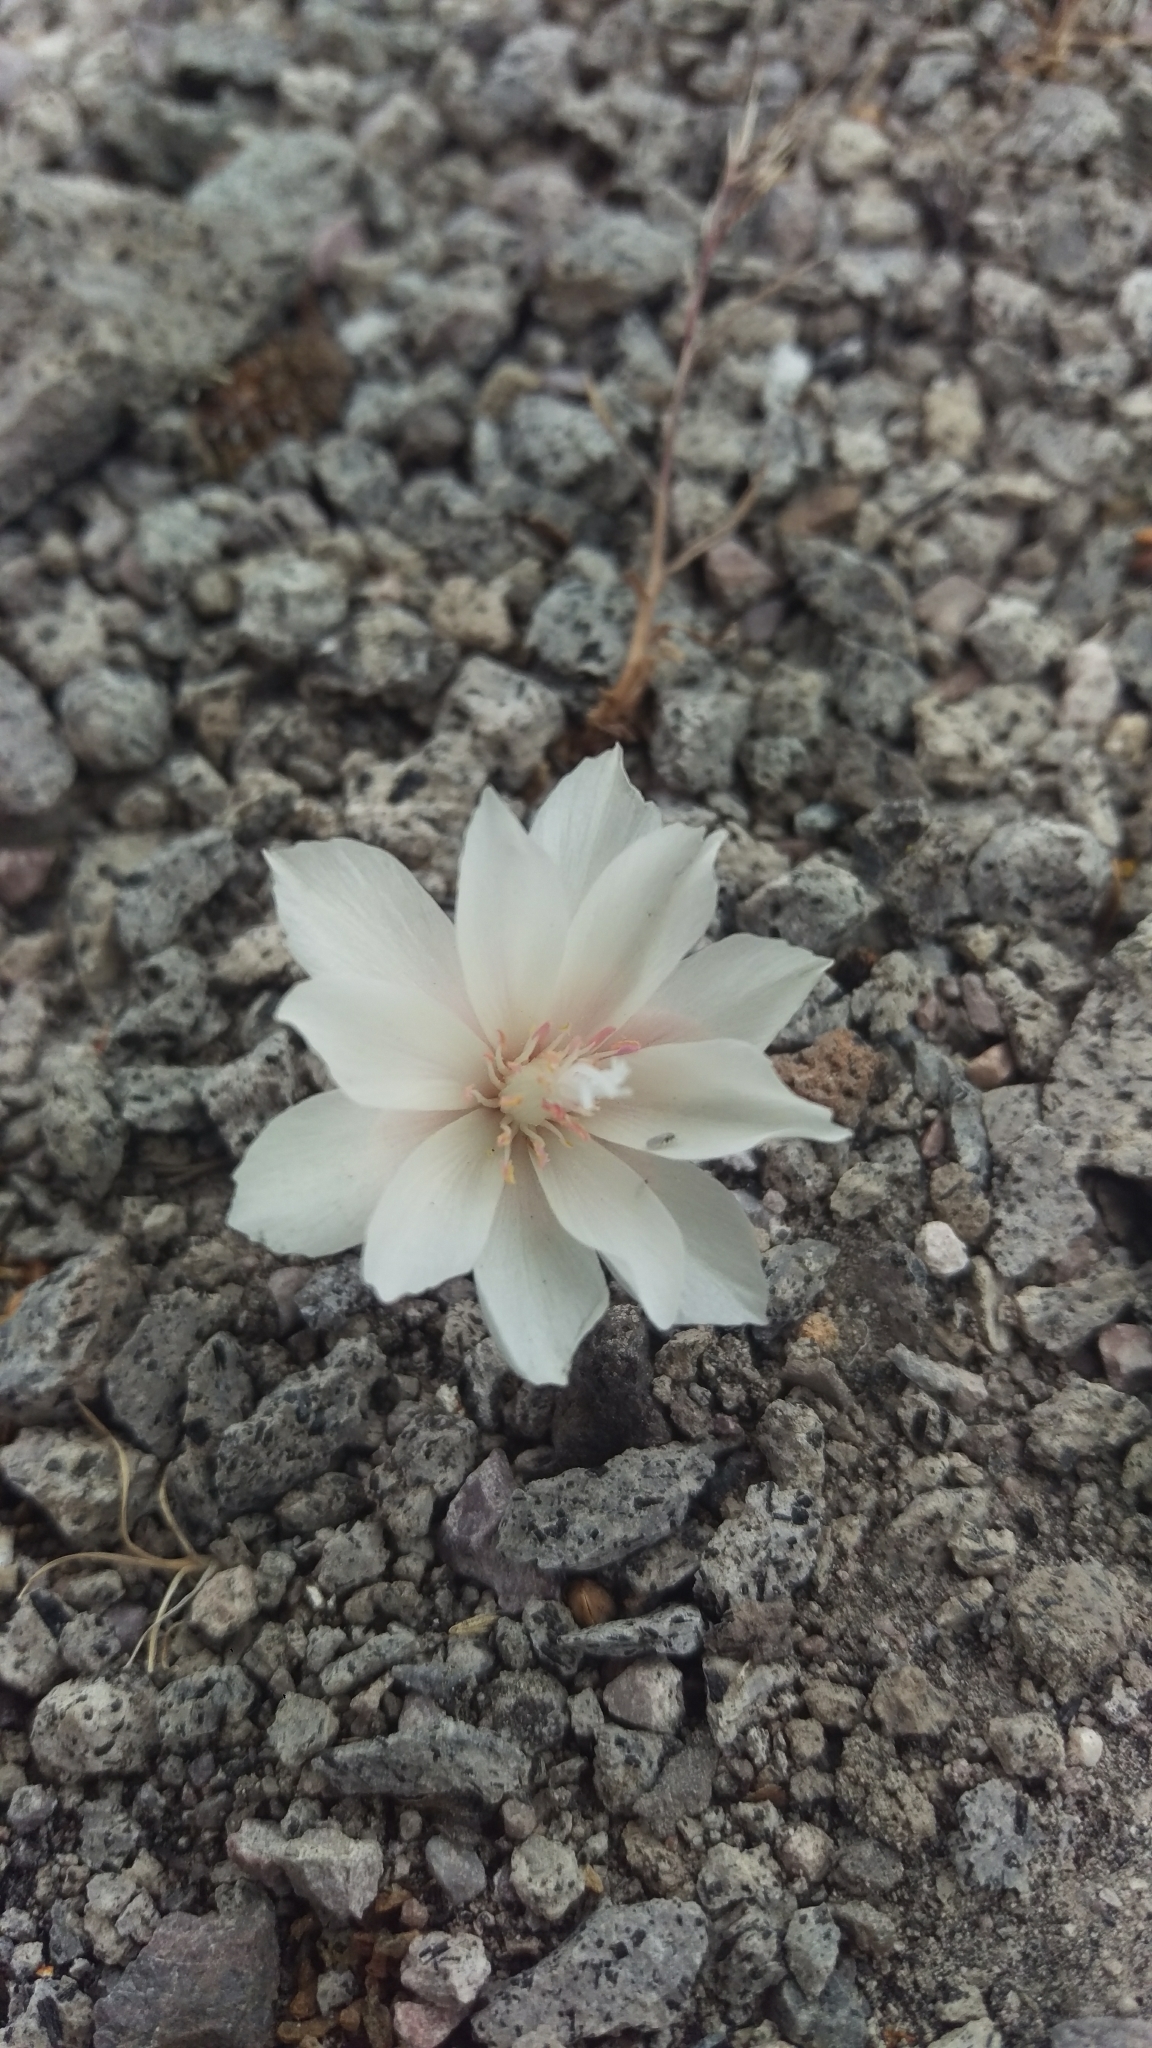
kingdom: Plantae
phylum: Tracheophyta
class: Magnoliopsida
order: Caryophyllales
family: Montiaceae
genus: Lewisia
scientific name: Lewisia rediviva
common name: Bitter-root
